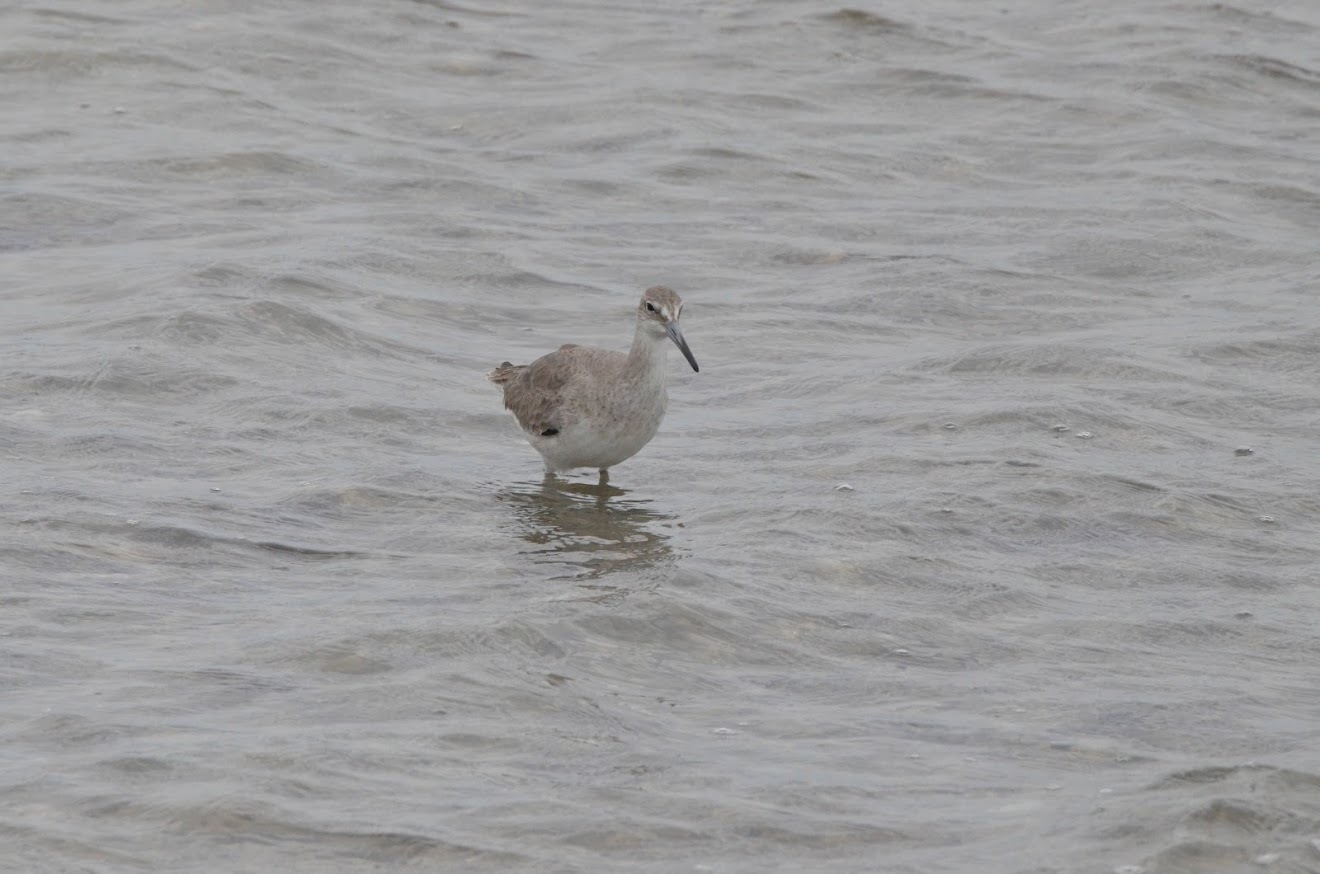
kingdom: Animalia
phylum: Chordata
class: Aves
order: Charadriiformes
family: Scolopacidae
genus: Tringa
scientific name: Tringa semipalmata
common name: Willet
